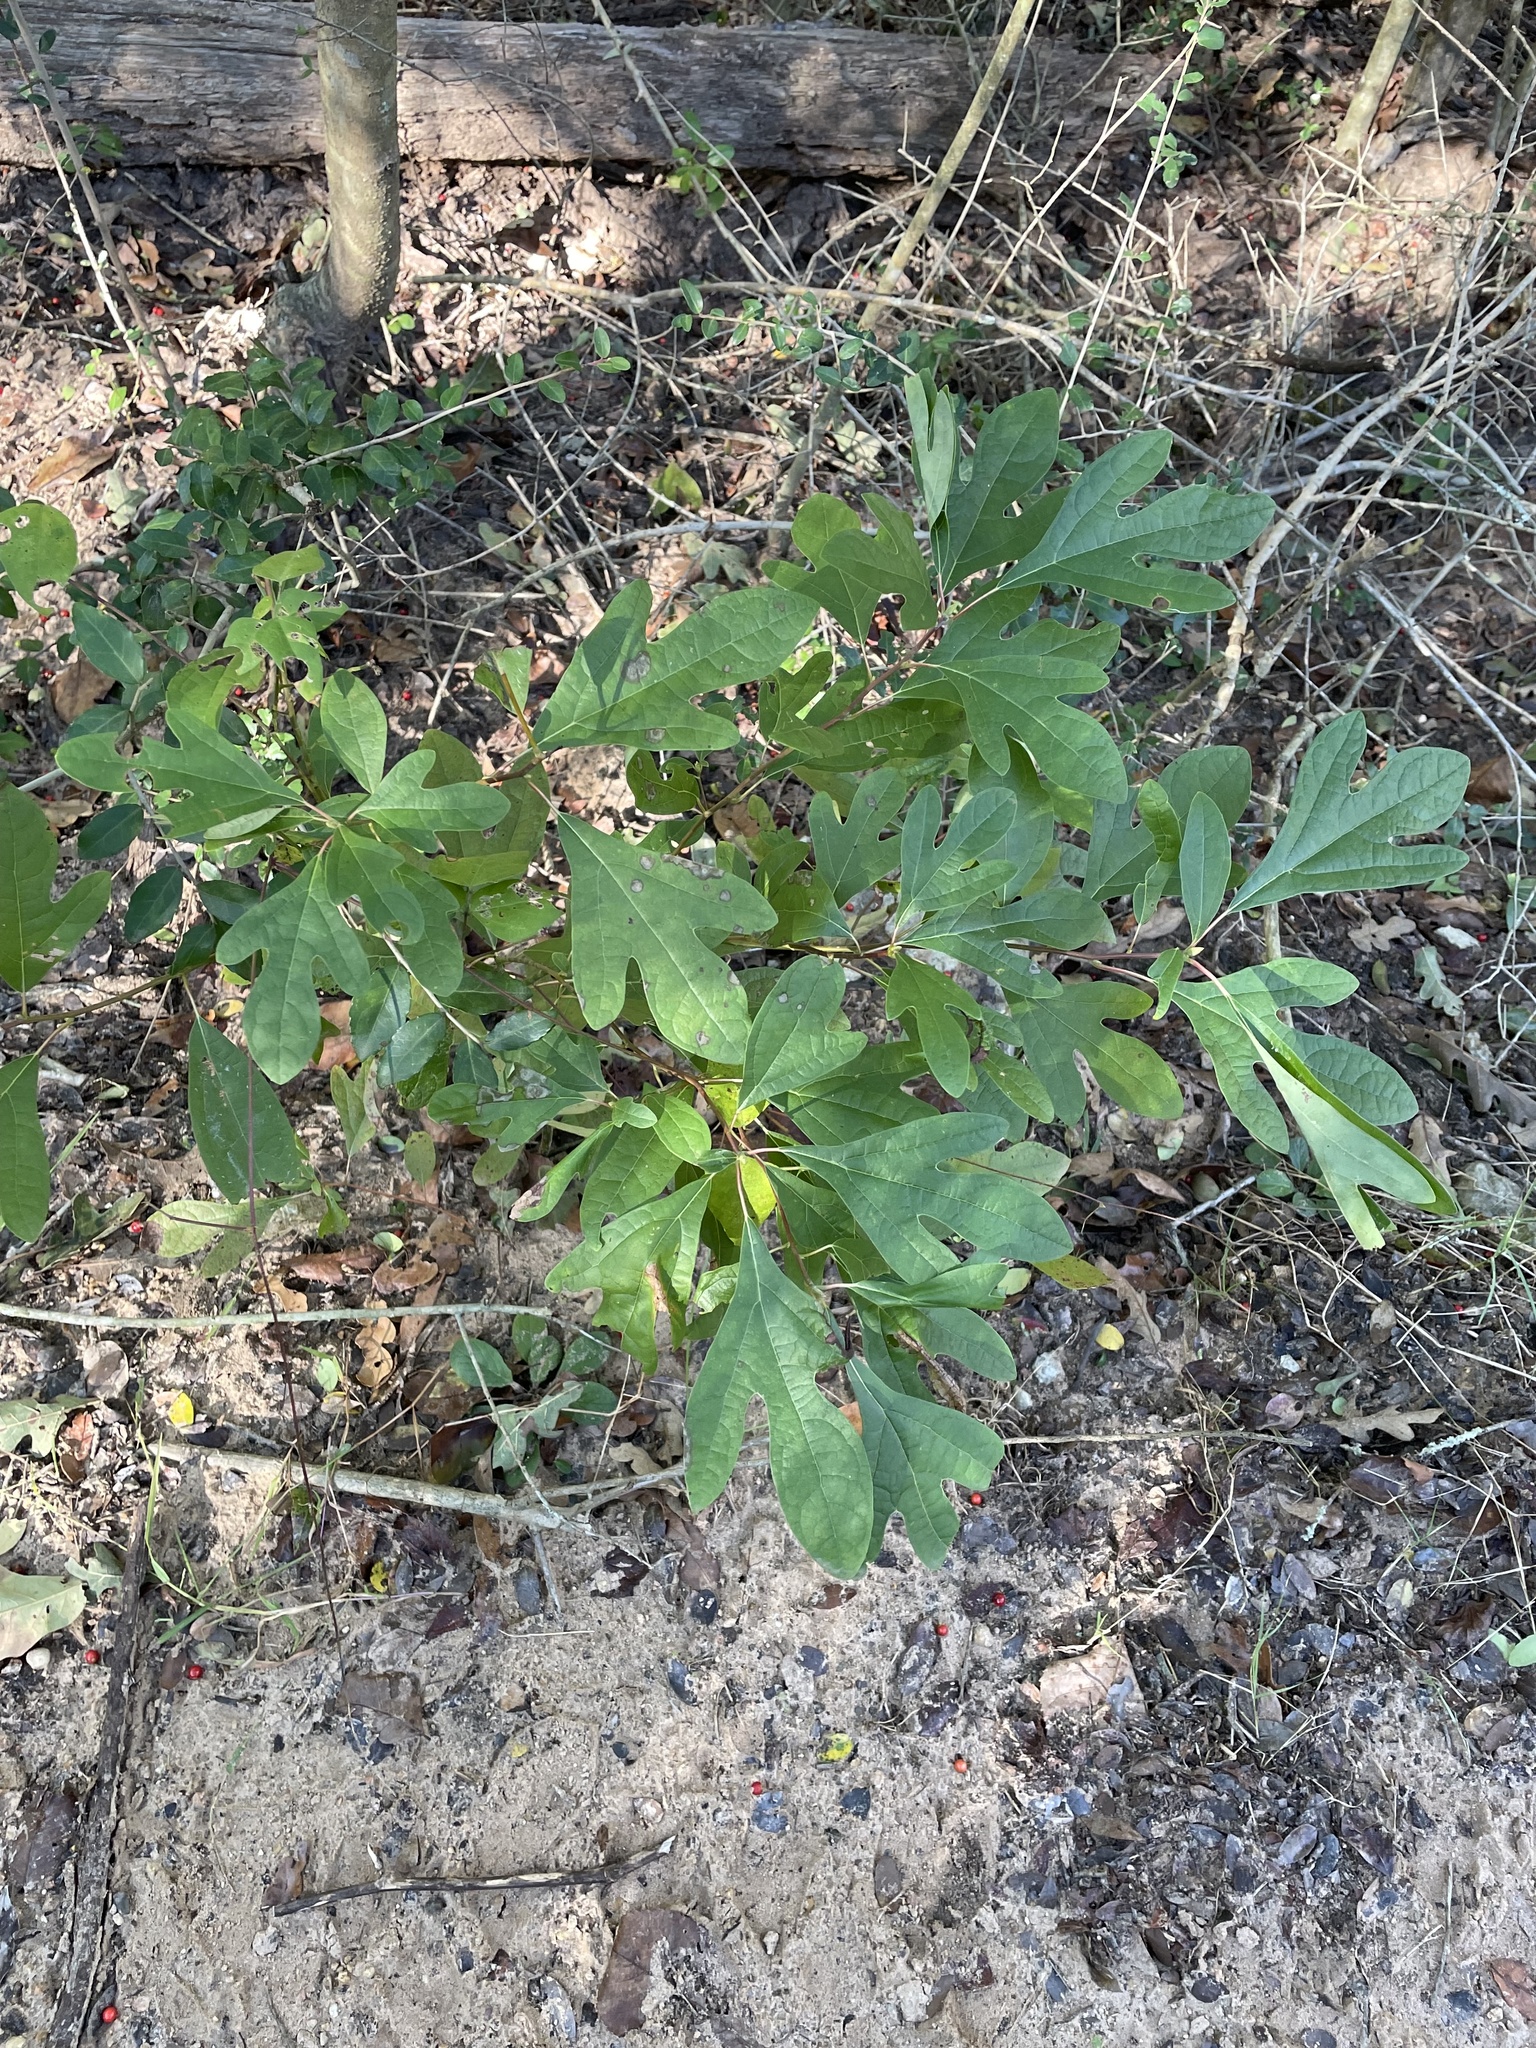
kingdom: Plantae
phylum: Tracheophyta
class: Magnoliopsida
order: Laurales
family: Lauraceae
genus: Sassafras
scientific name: Sassafras albidum
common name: Sassafras
